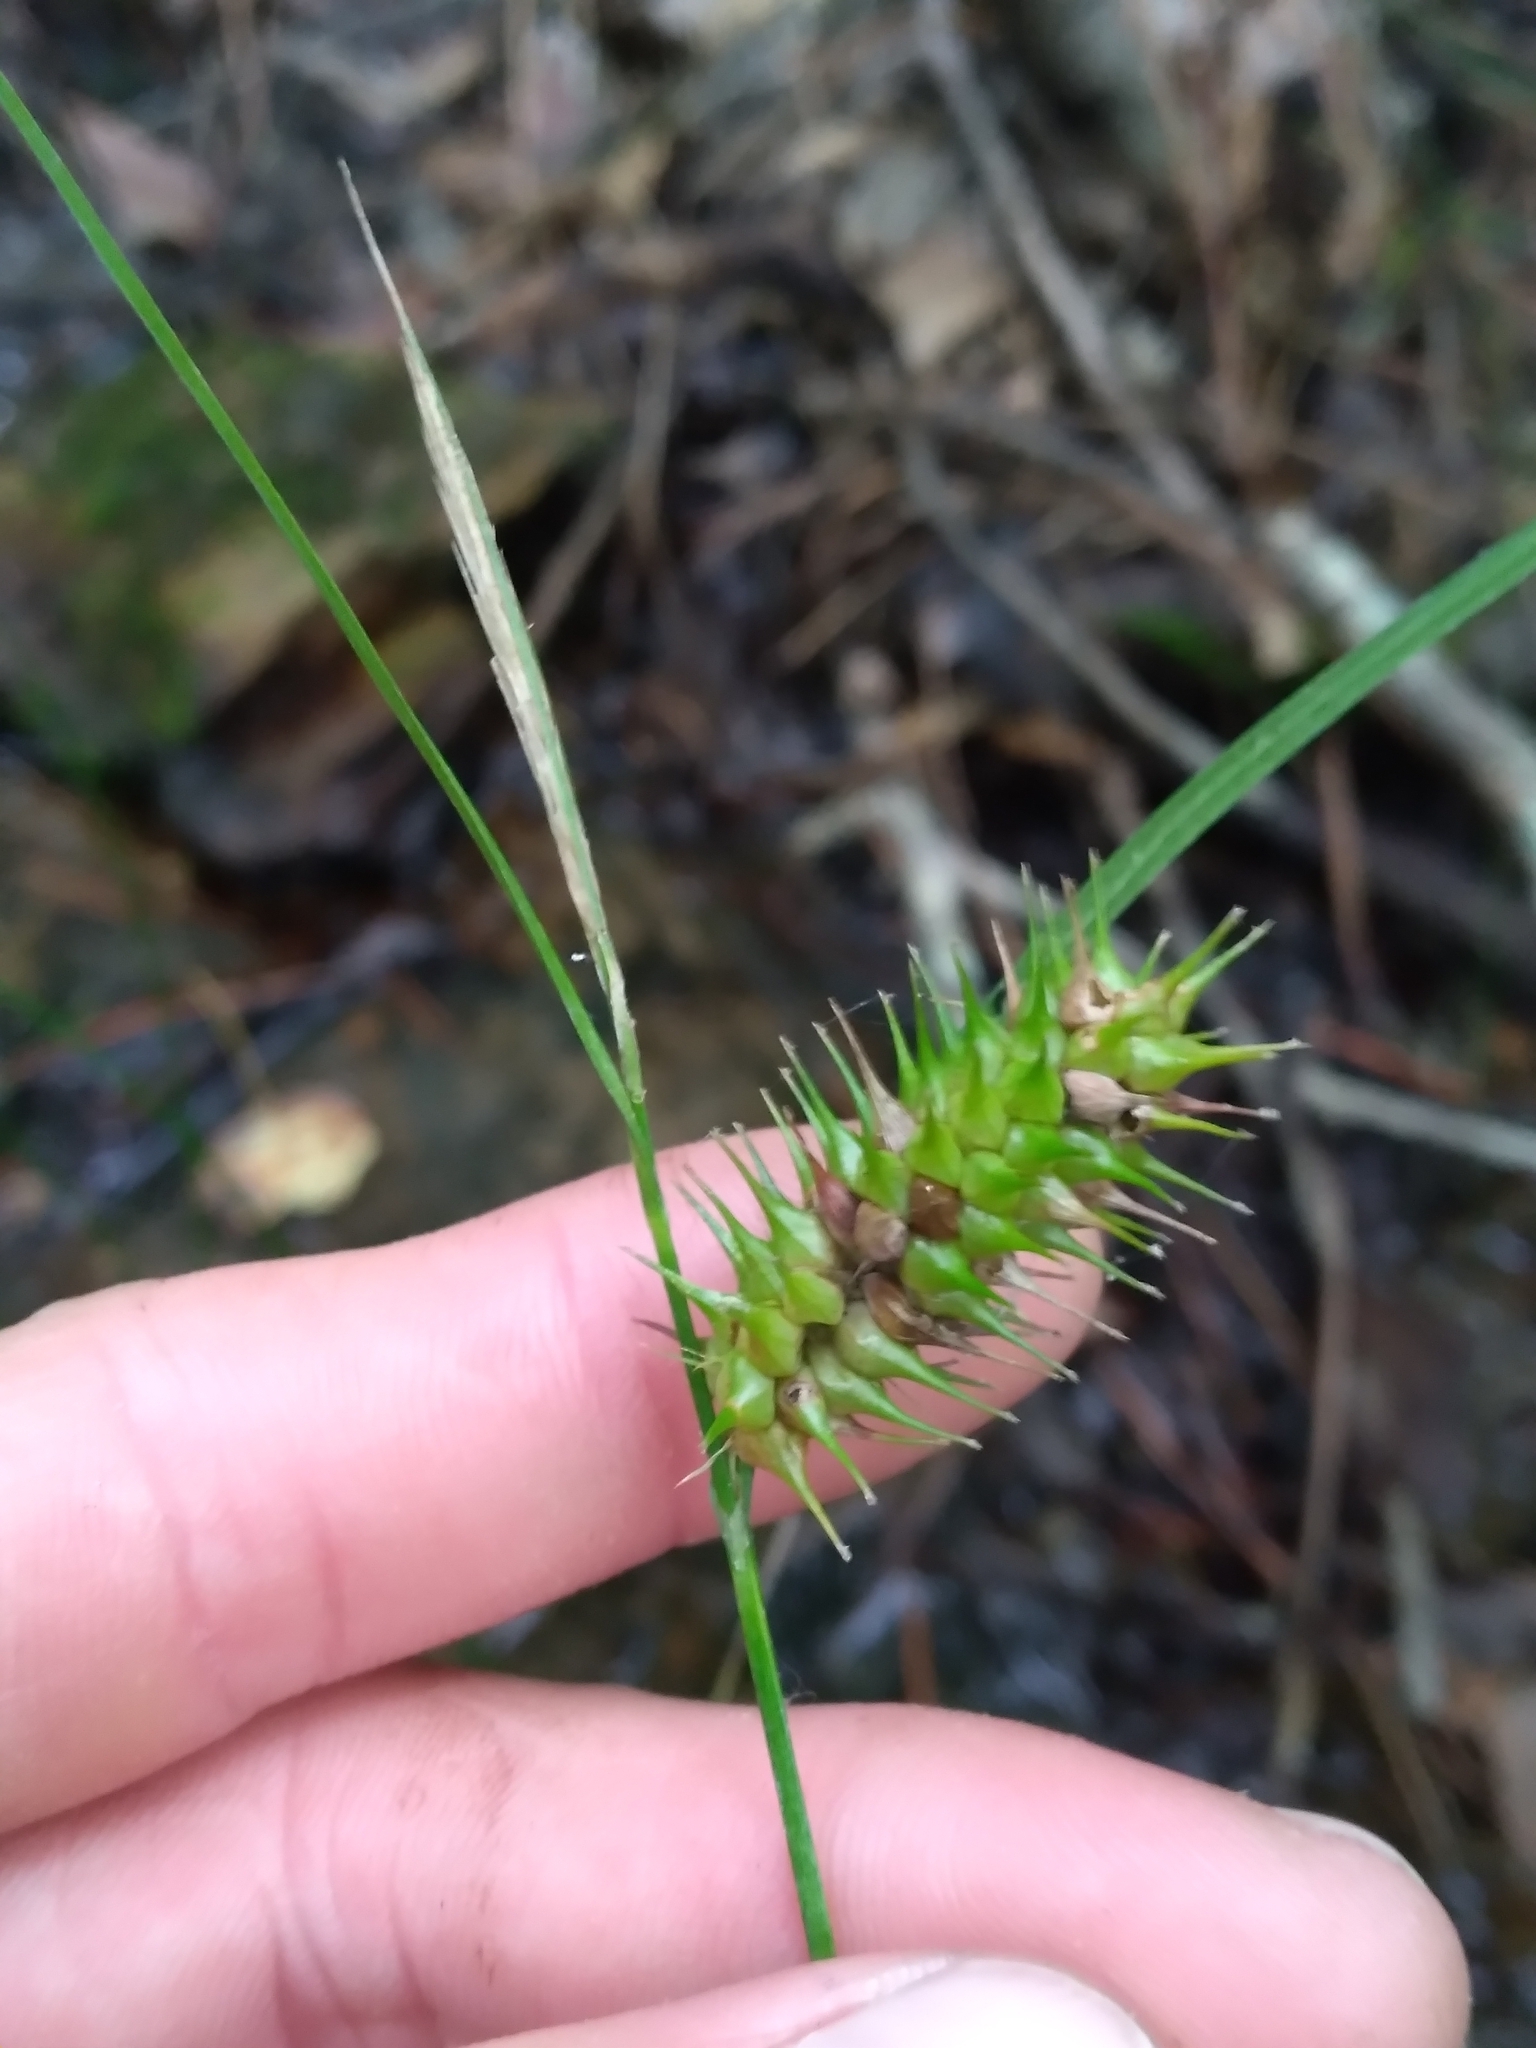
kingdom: Plantae
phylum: Tracheophyta
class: Liliopsida
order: Poales
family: Cyperaceae
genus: Carex
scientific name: Carex lurida
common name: Sallow sedge
